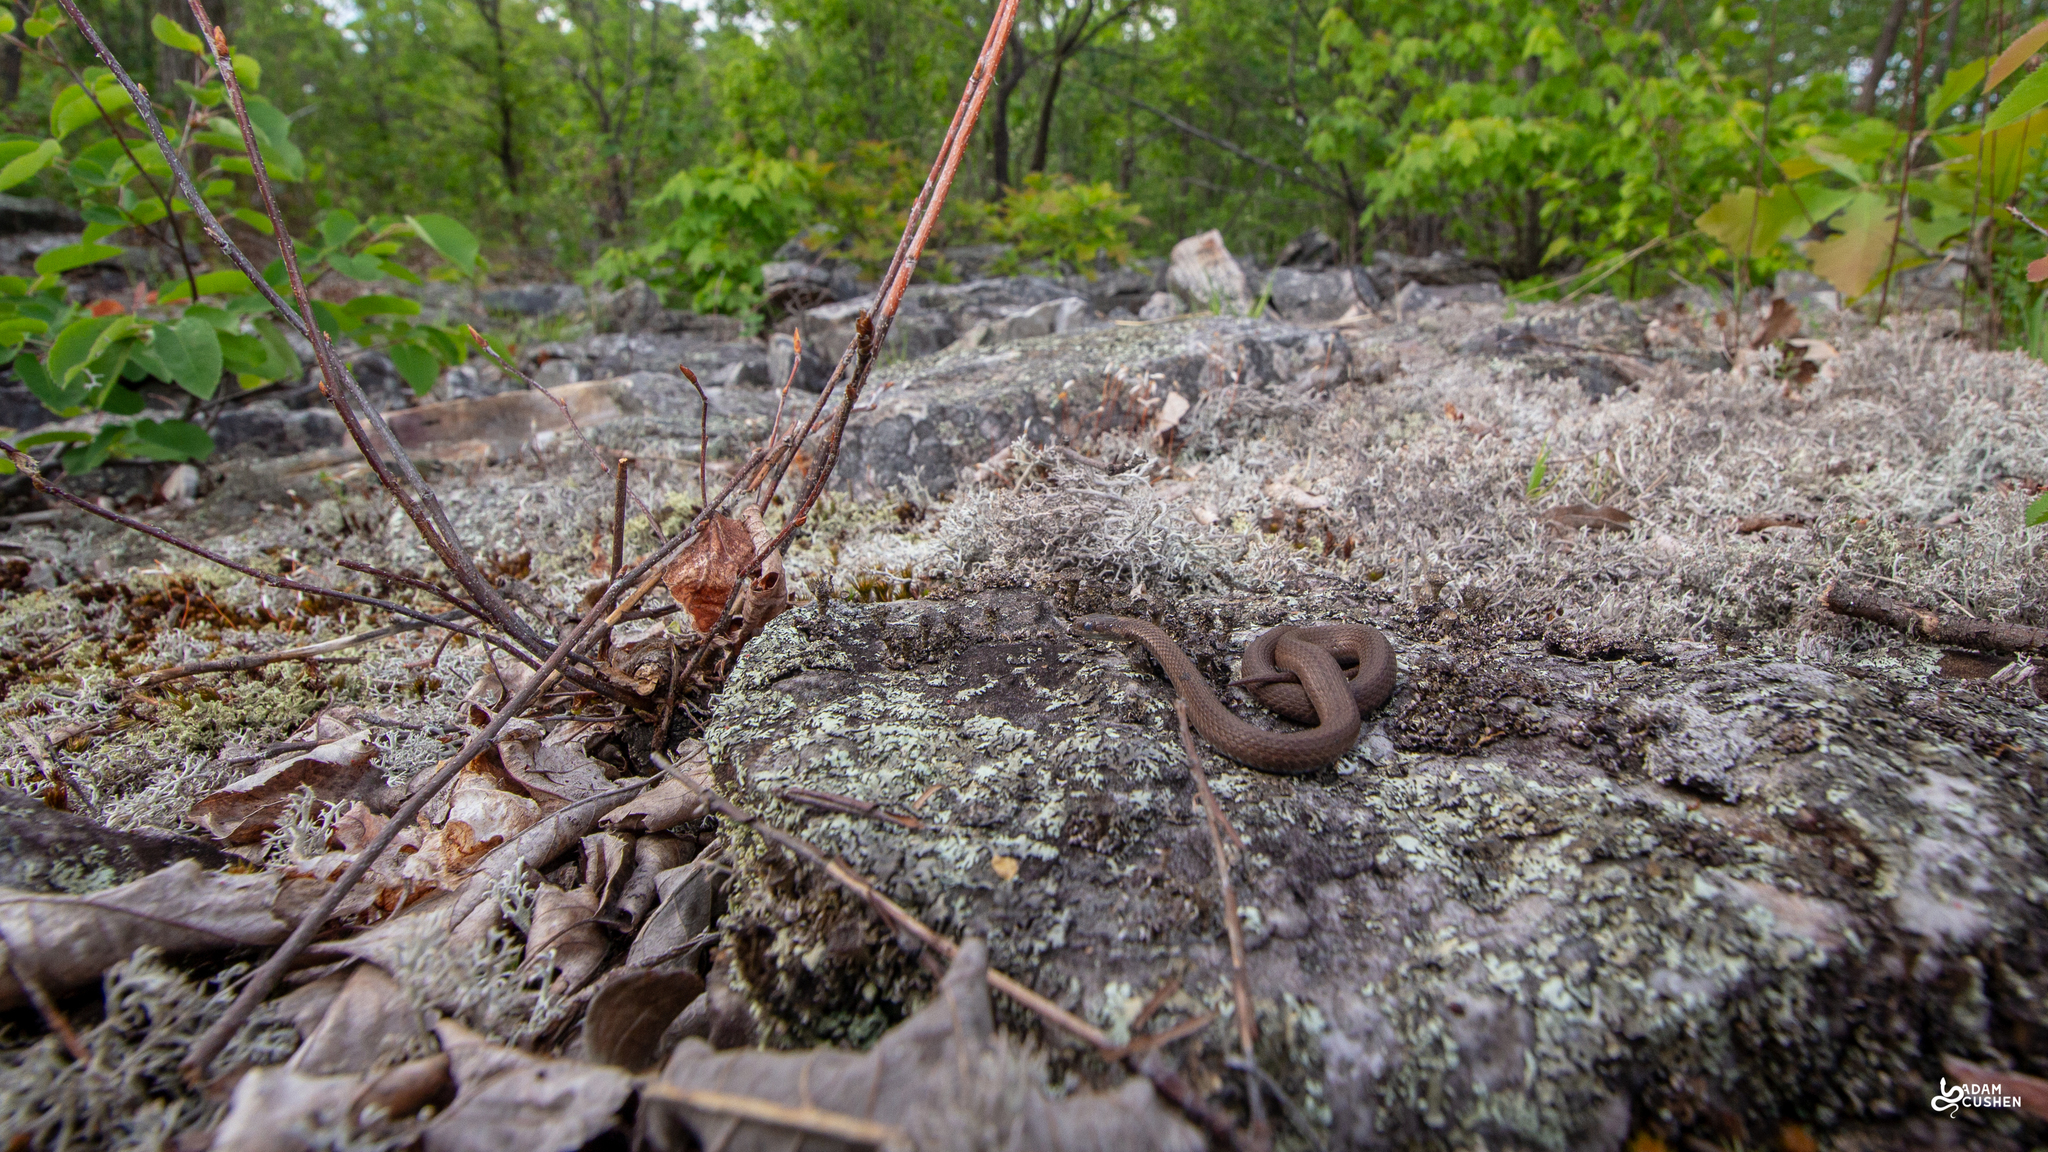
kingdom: Animalia
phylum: Chordata
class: Squamata
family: Colubridae
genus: Storeria
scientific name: Storeria occipitomaculata
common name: Redbelly snake
